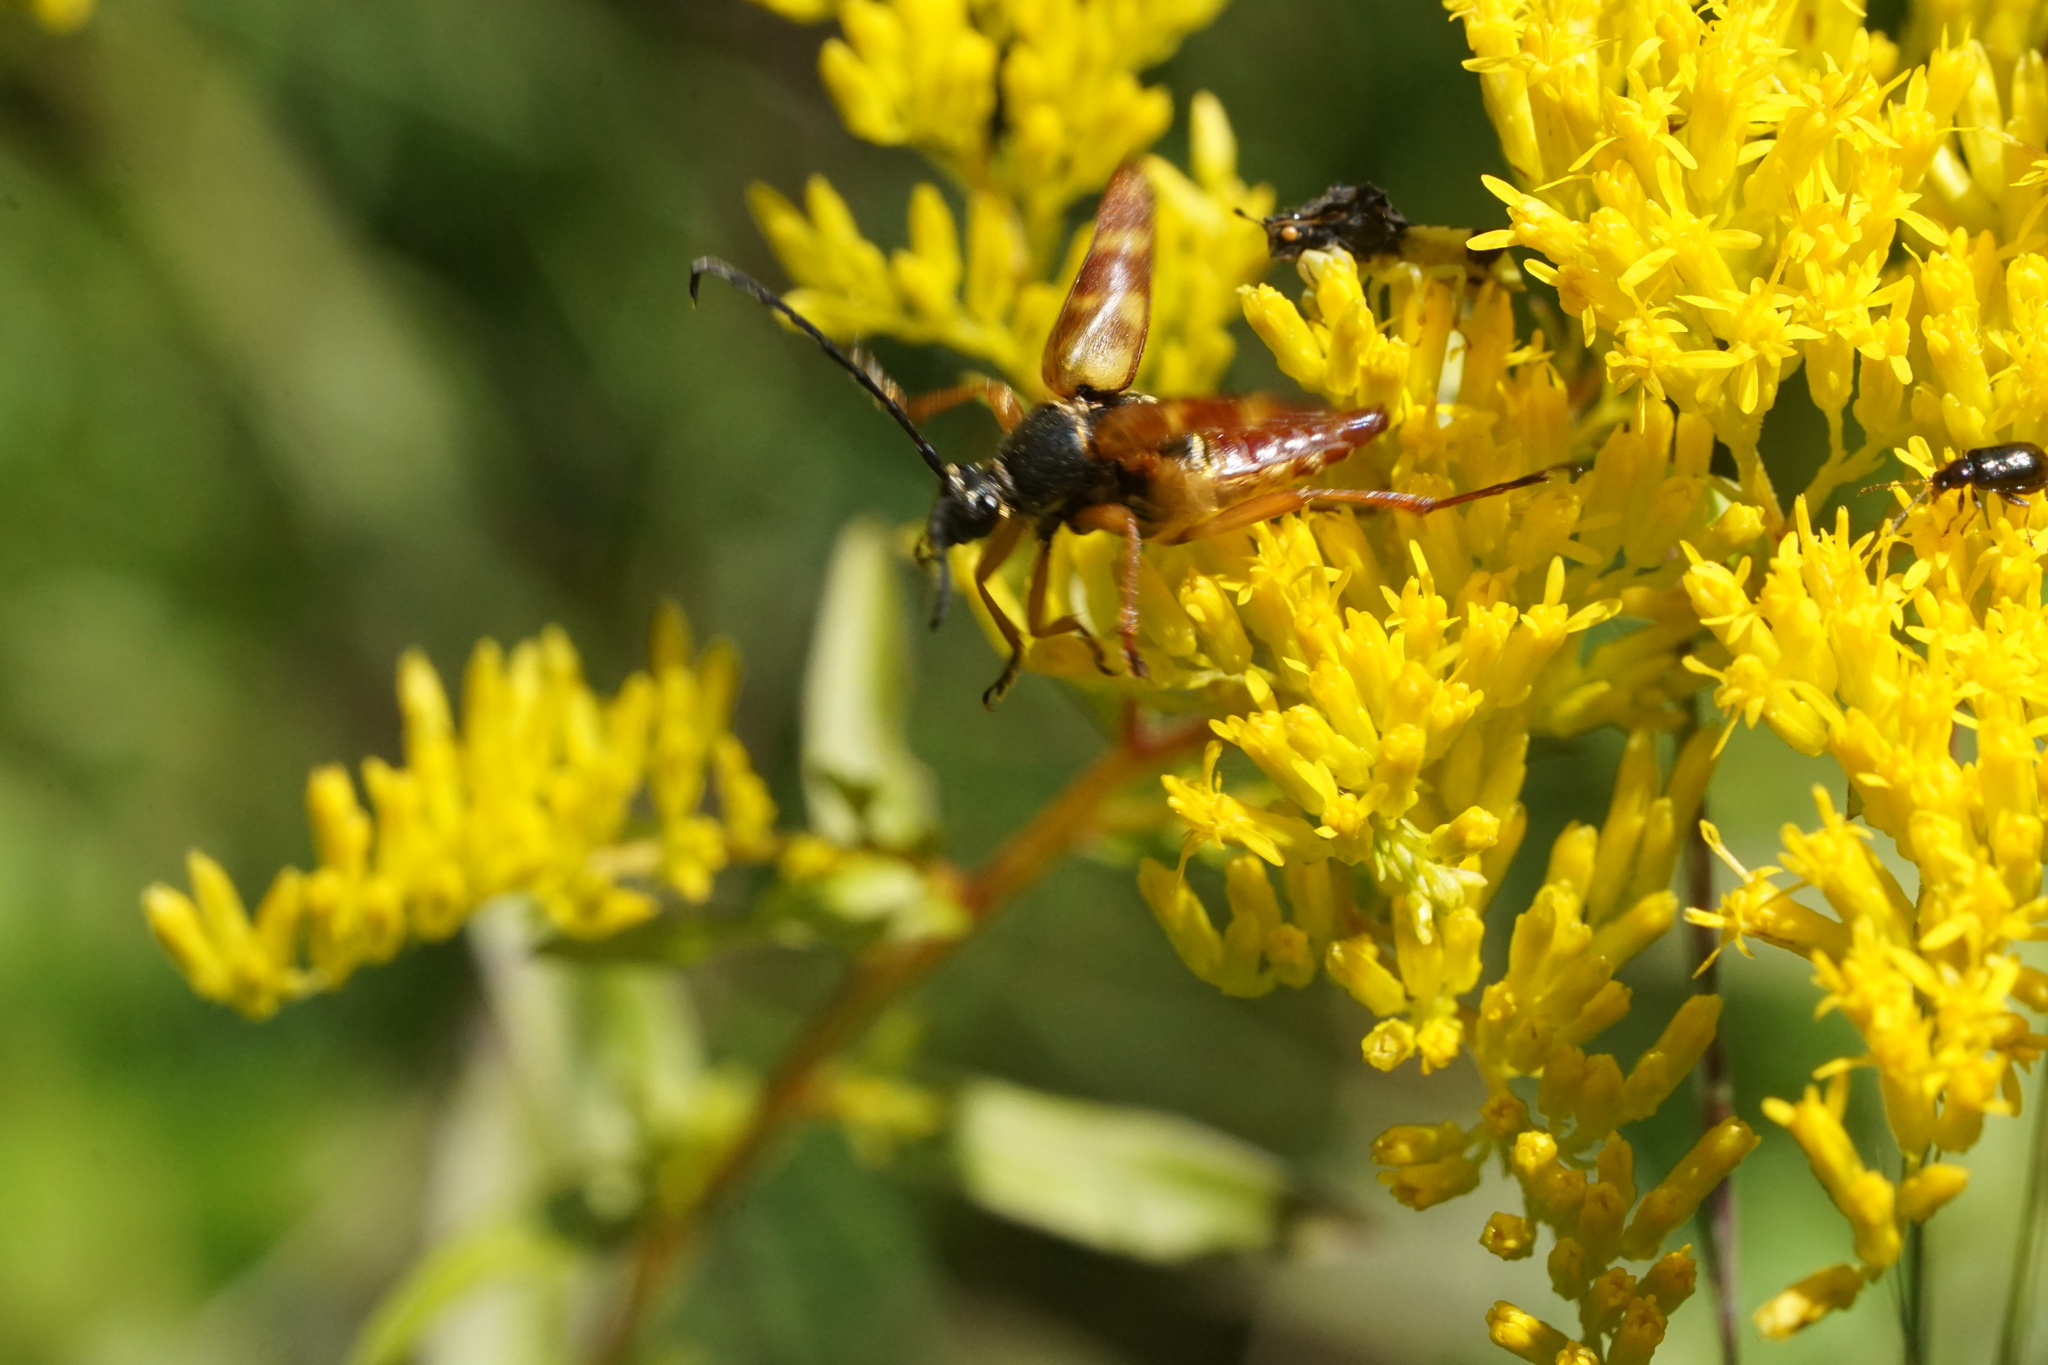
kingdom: Animalia
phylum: Arthropoda
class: Insecta
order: Coleoptera
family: Cerambycidae
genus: Typocerus
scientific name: Typocerus velutinus
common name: Banded longhorn beetle
